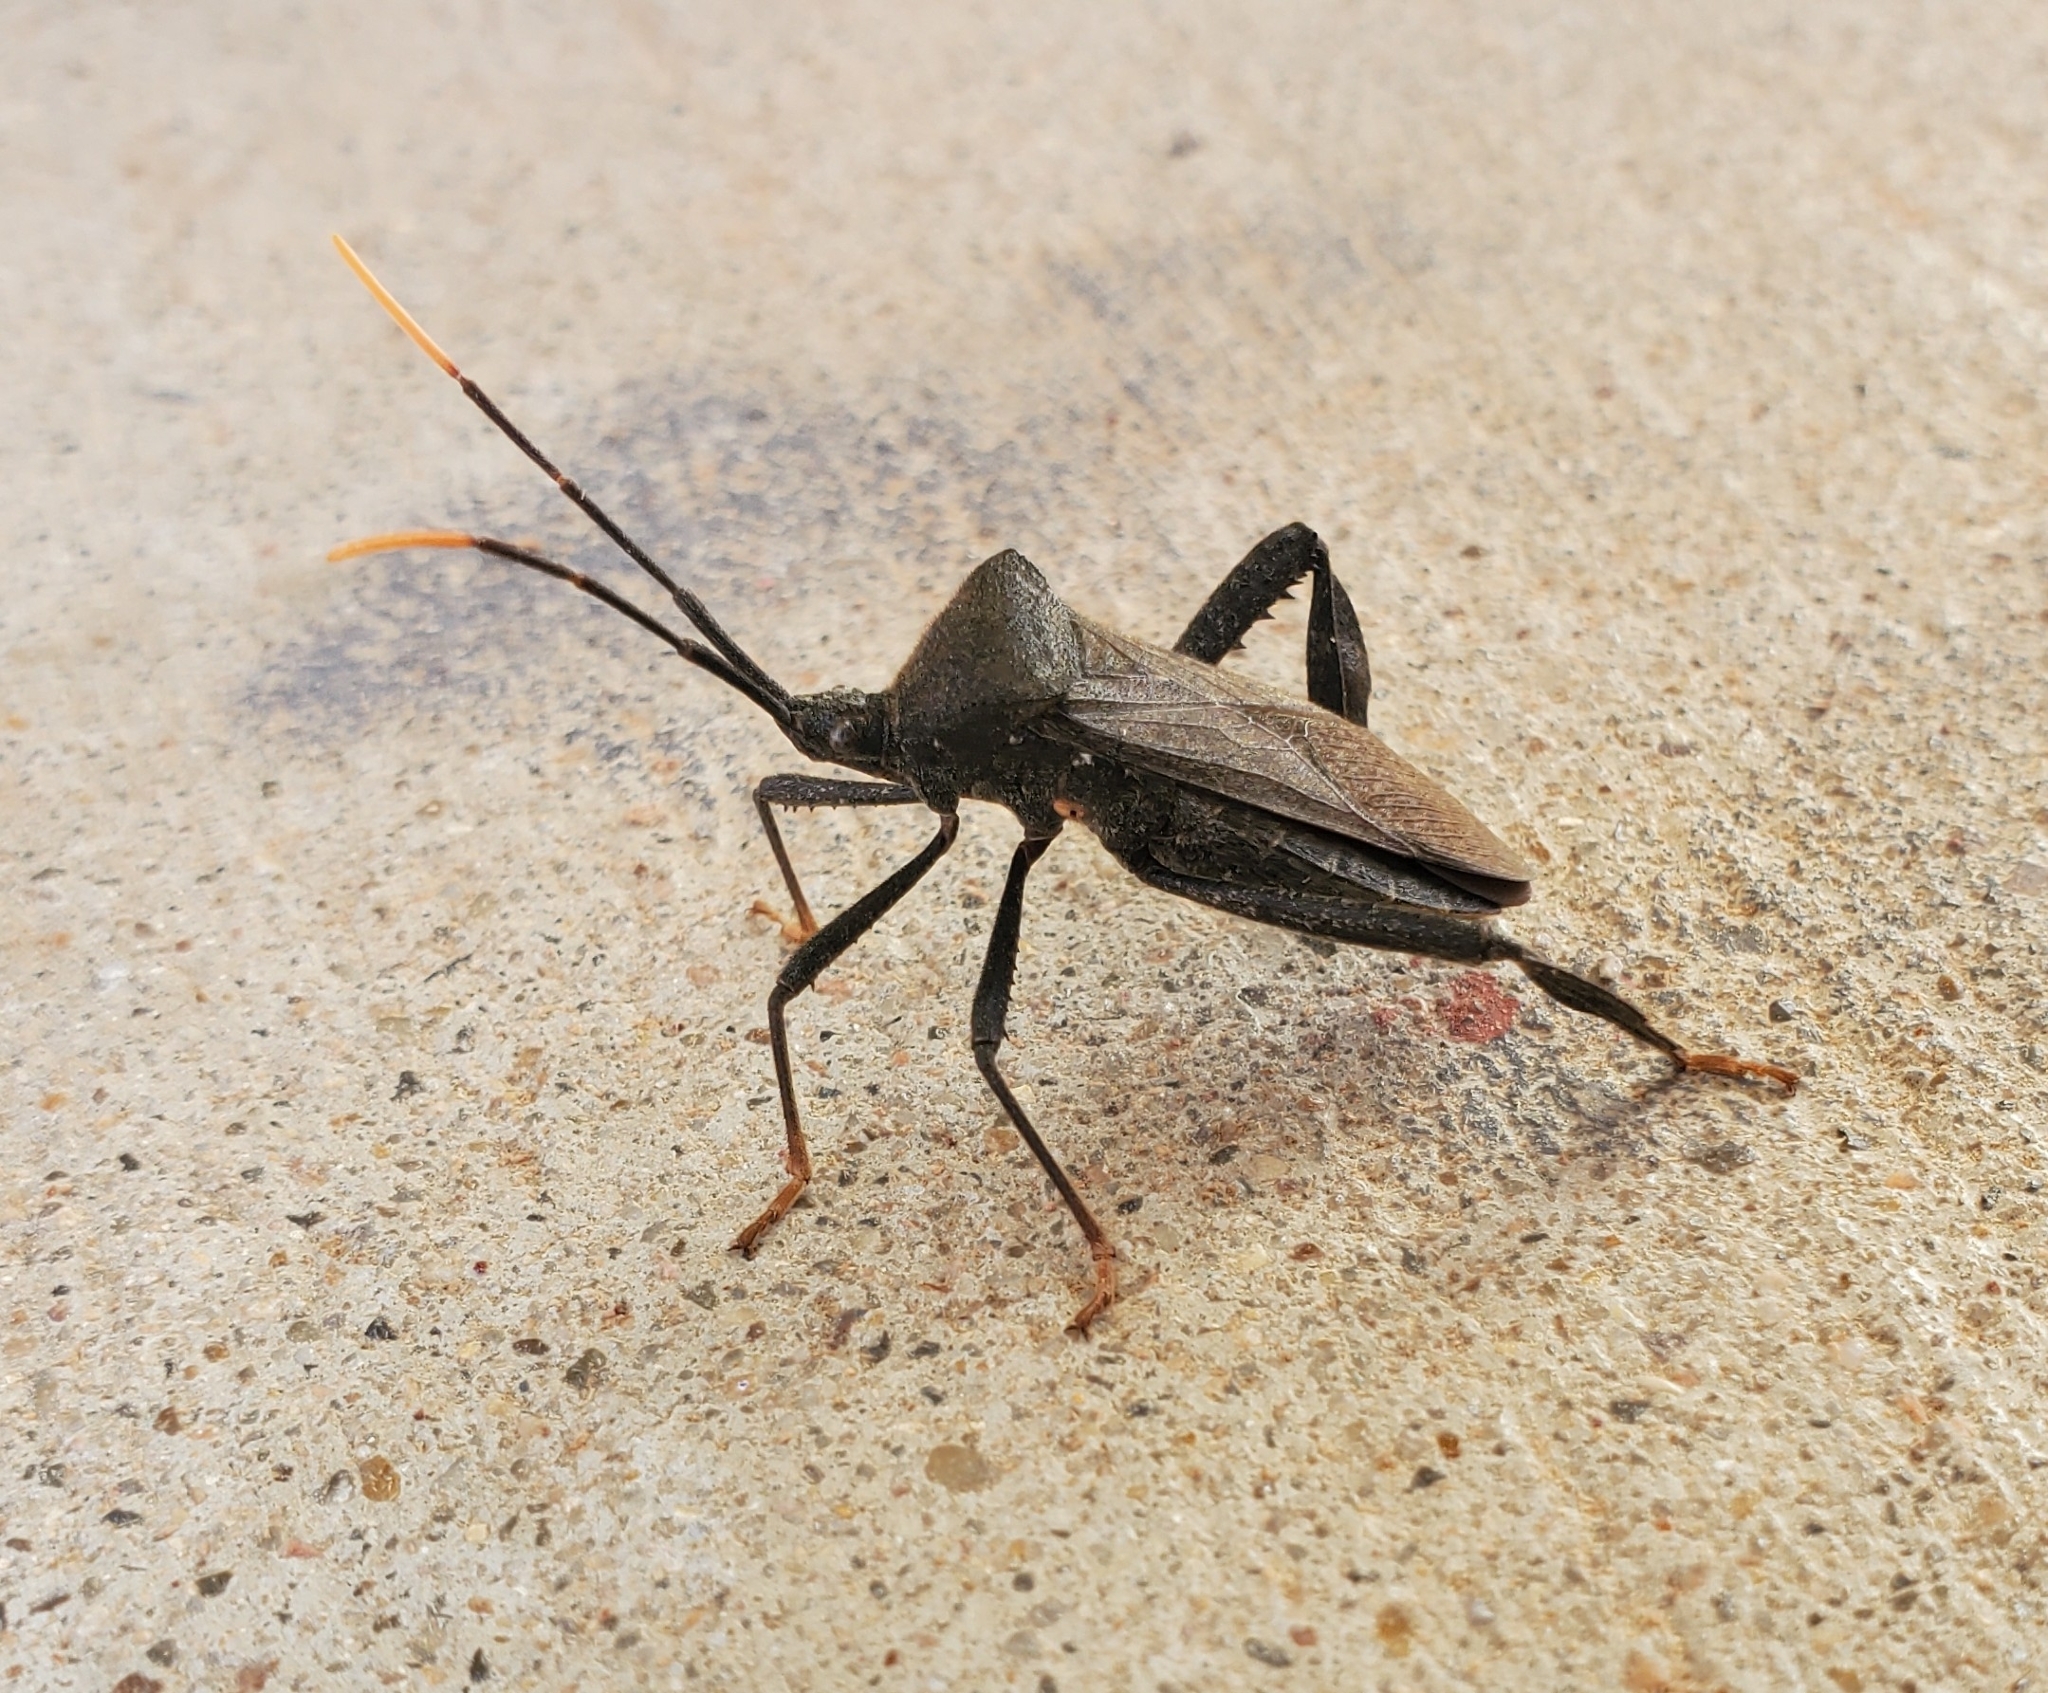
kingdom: Animalia
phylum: Arthropoda
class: Insecta
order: Hemiptera
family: Coreidae
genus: Acanthocephala
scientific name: Acanthocephala terminalis
